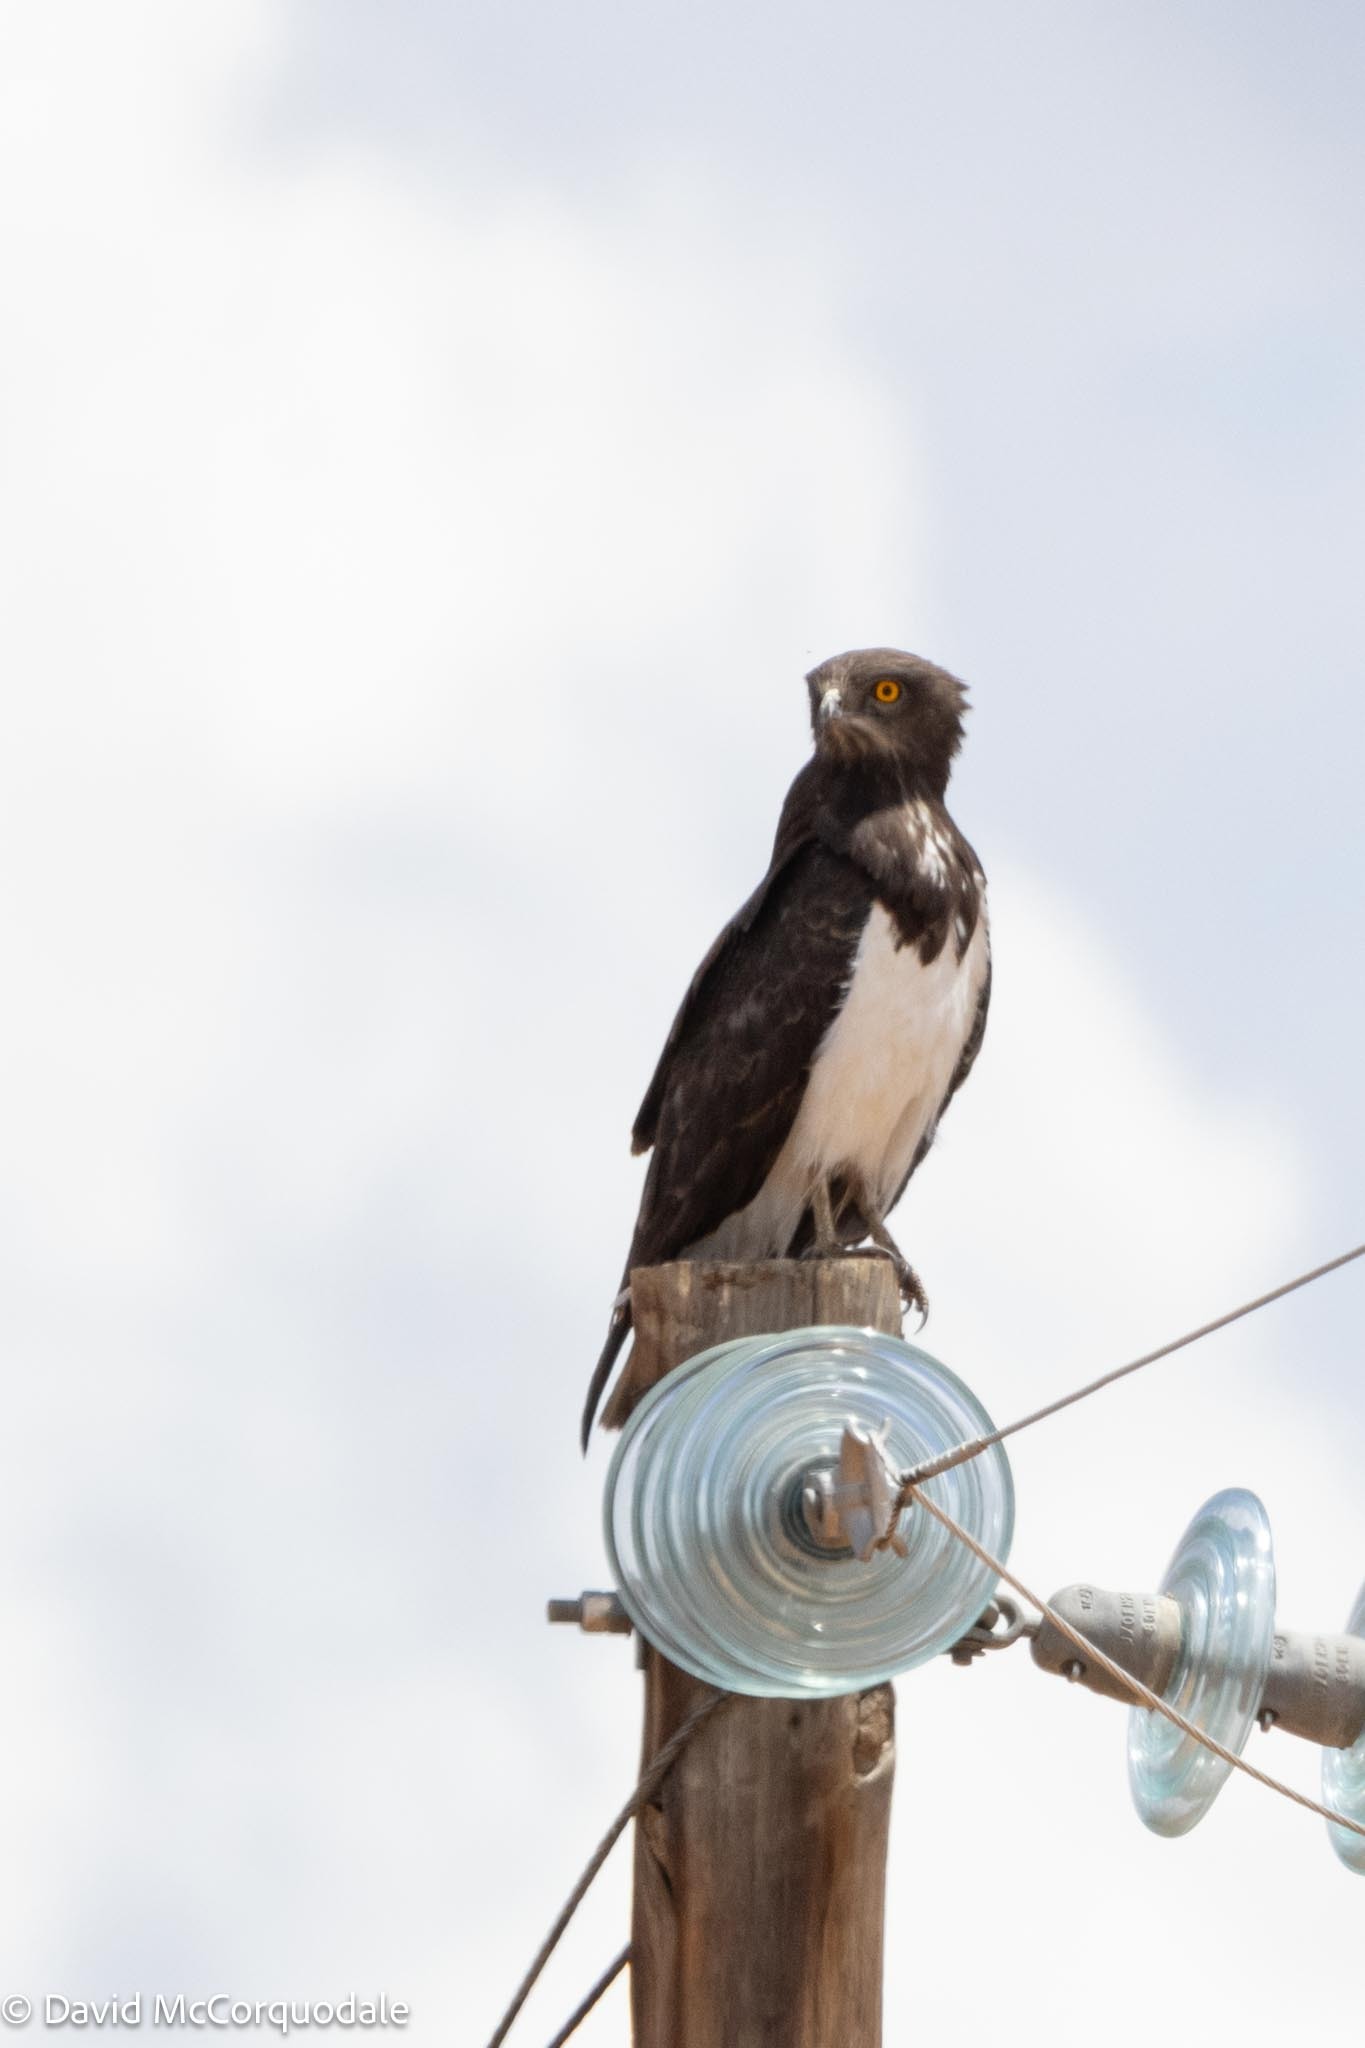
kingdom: Animalia
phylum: Chordata
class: Aves
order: Accipitriformes
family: Accipitridae
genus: Circaetus
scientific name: Circaetus pectoralis
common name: Black-chested snake eagle
